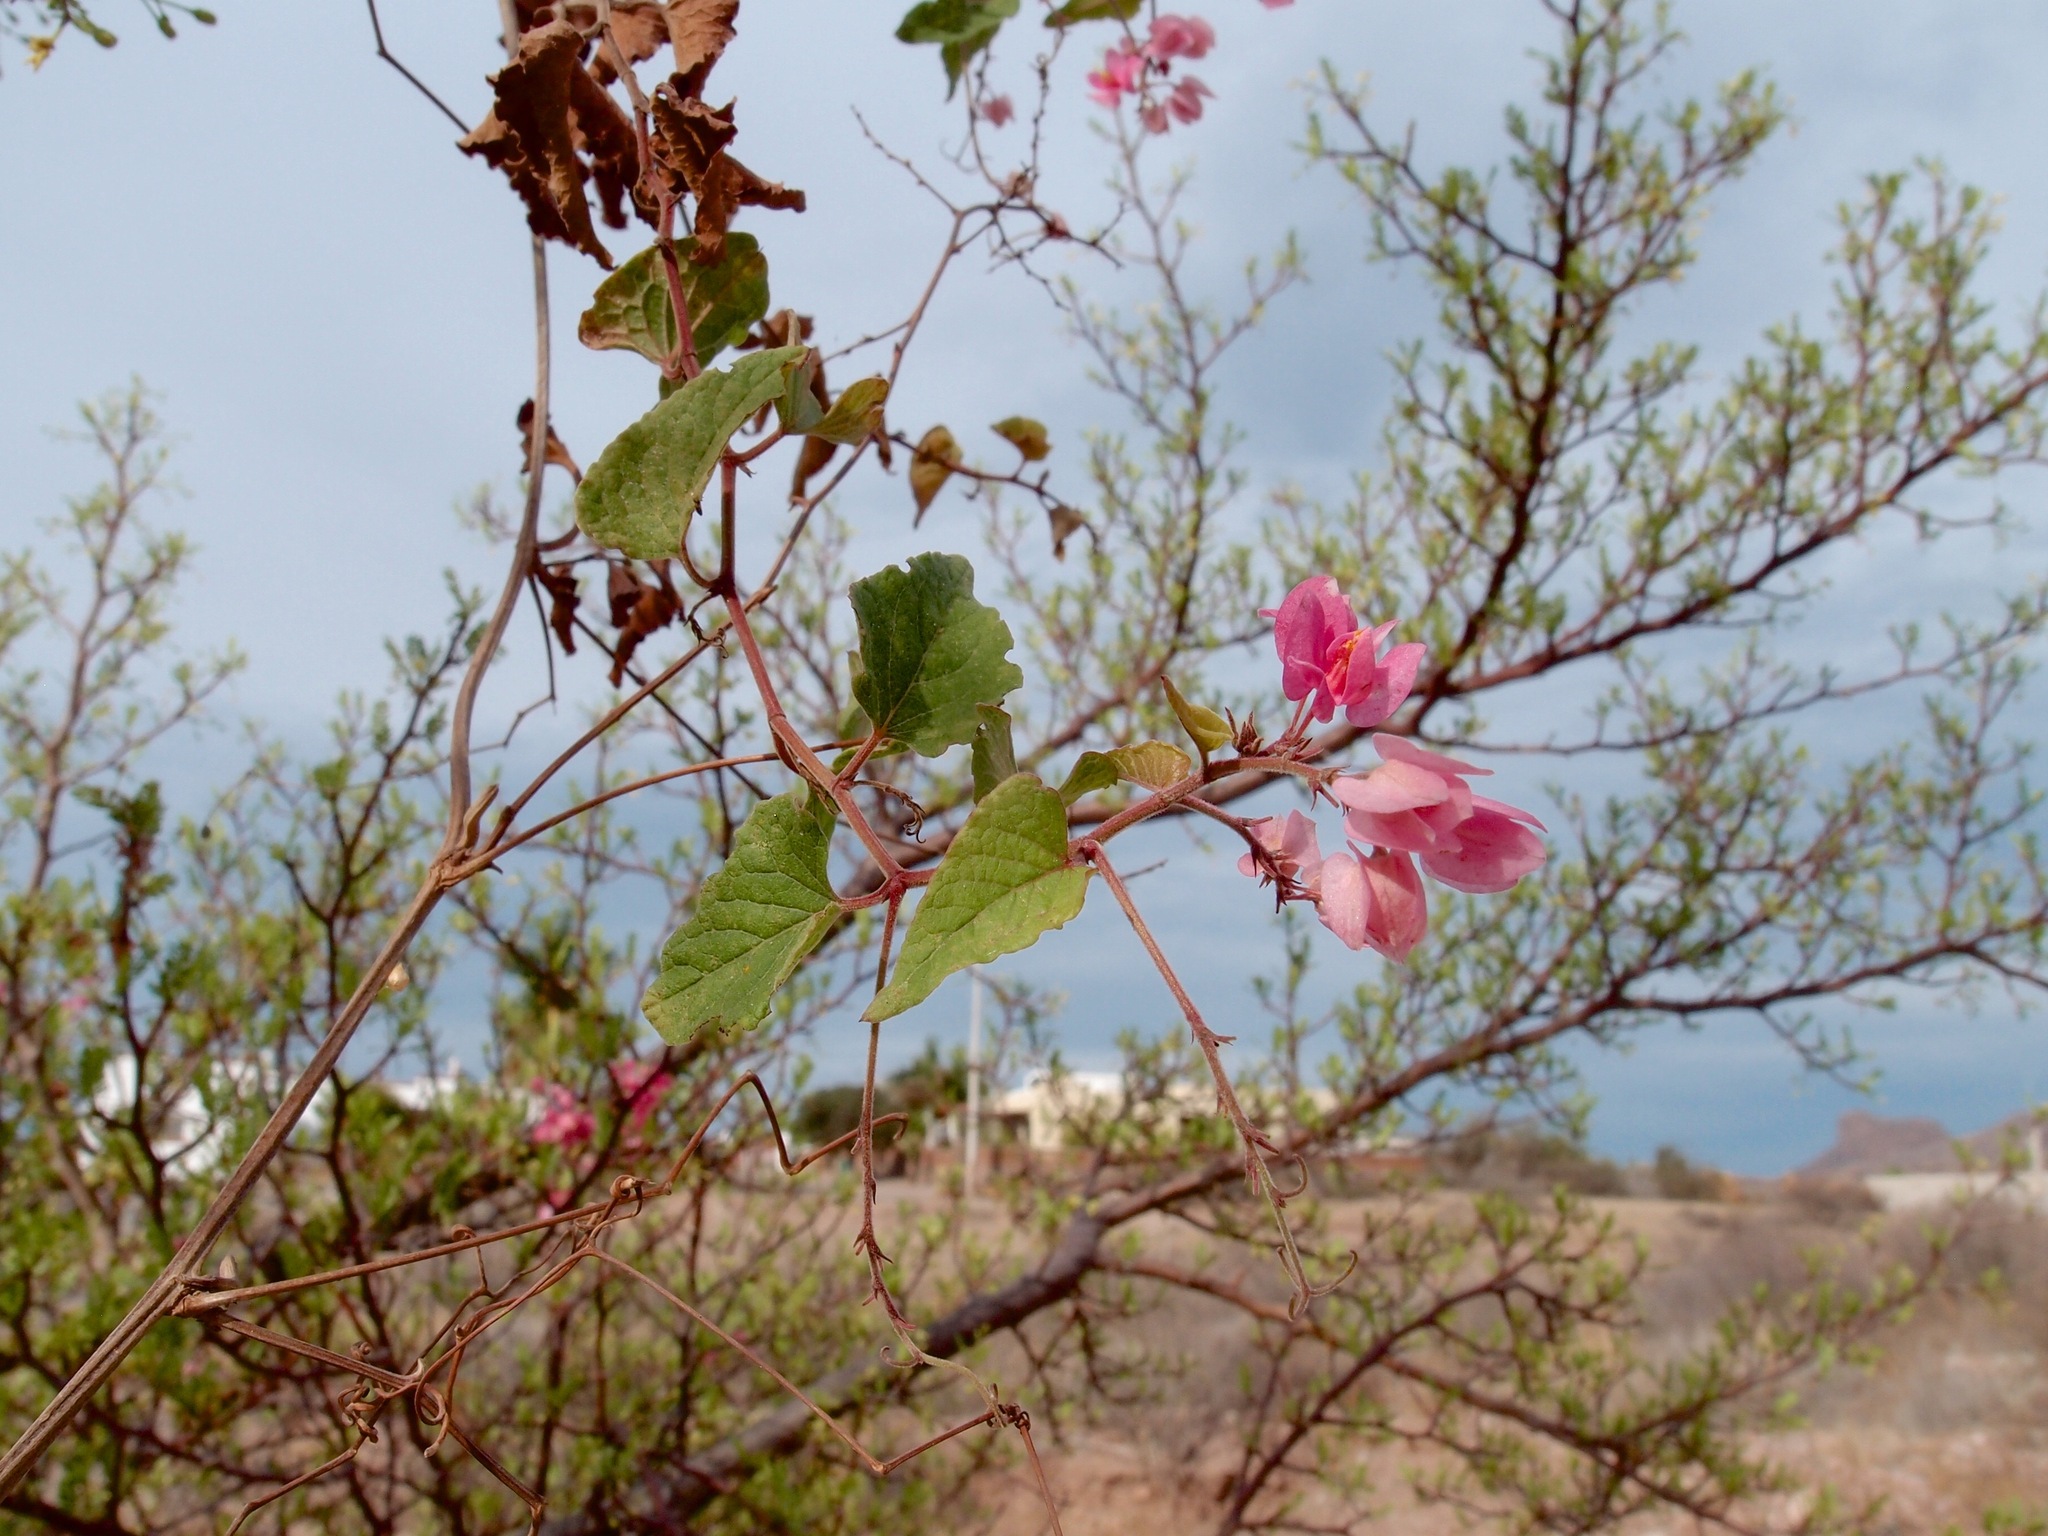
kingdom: Plantae
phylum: Tracheophyta
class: Magnoliopsida
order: Caryophyllales
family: Polygonaceae
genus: Antigonon
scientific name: Antigonon leptopus
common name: Coral vine
